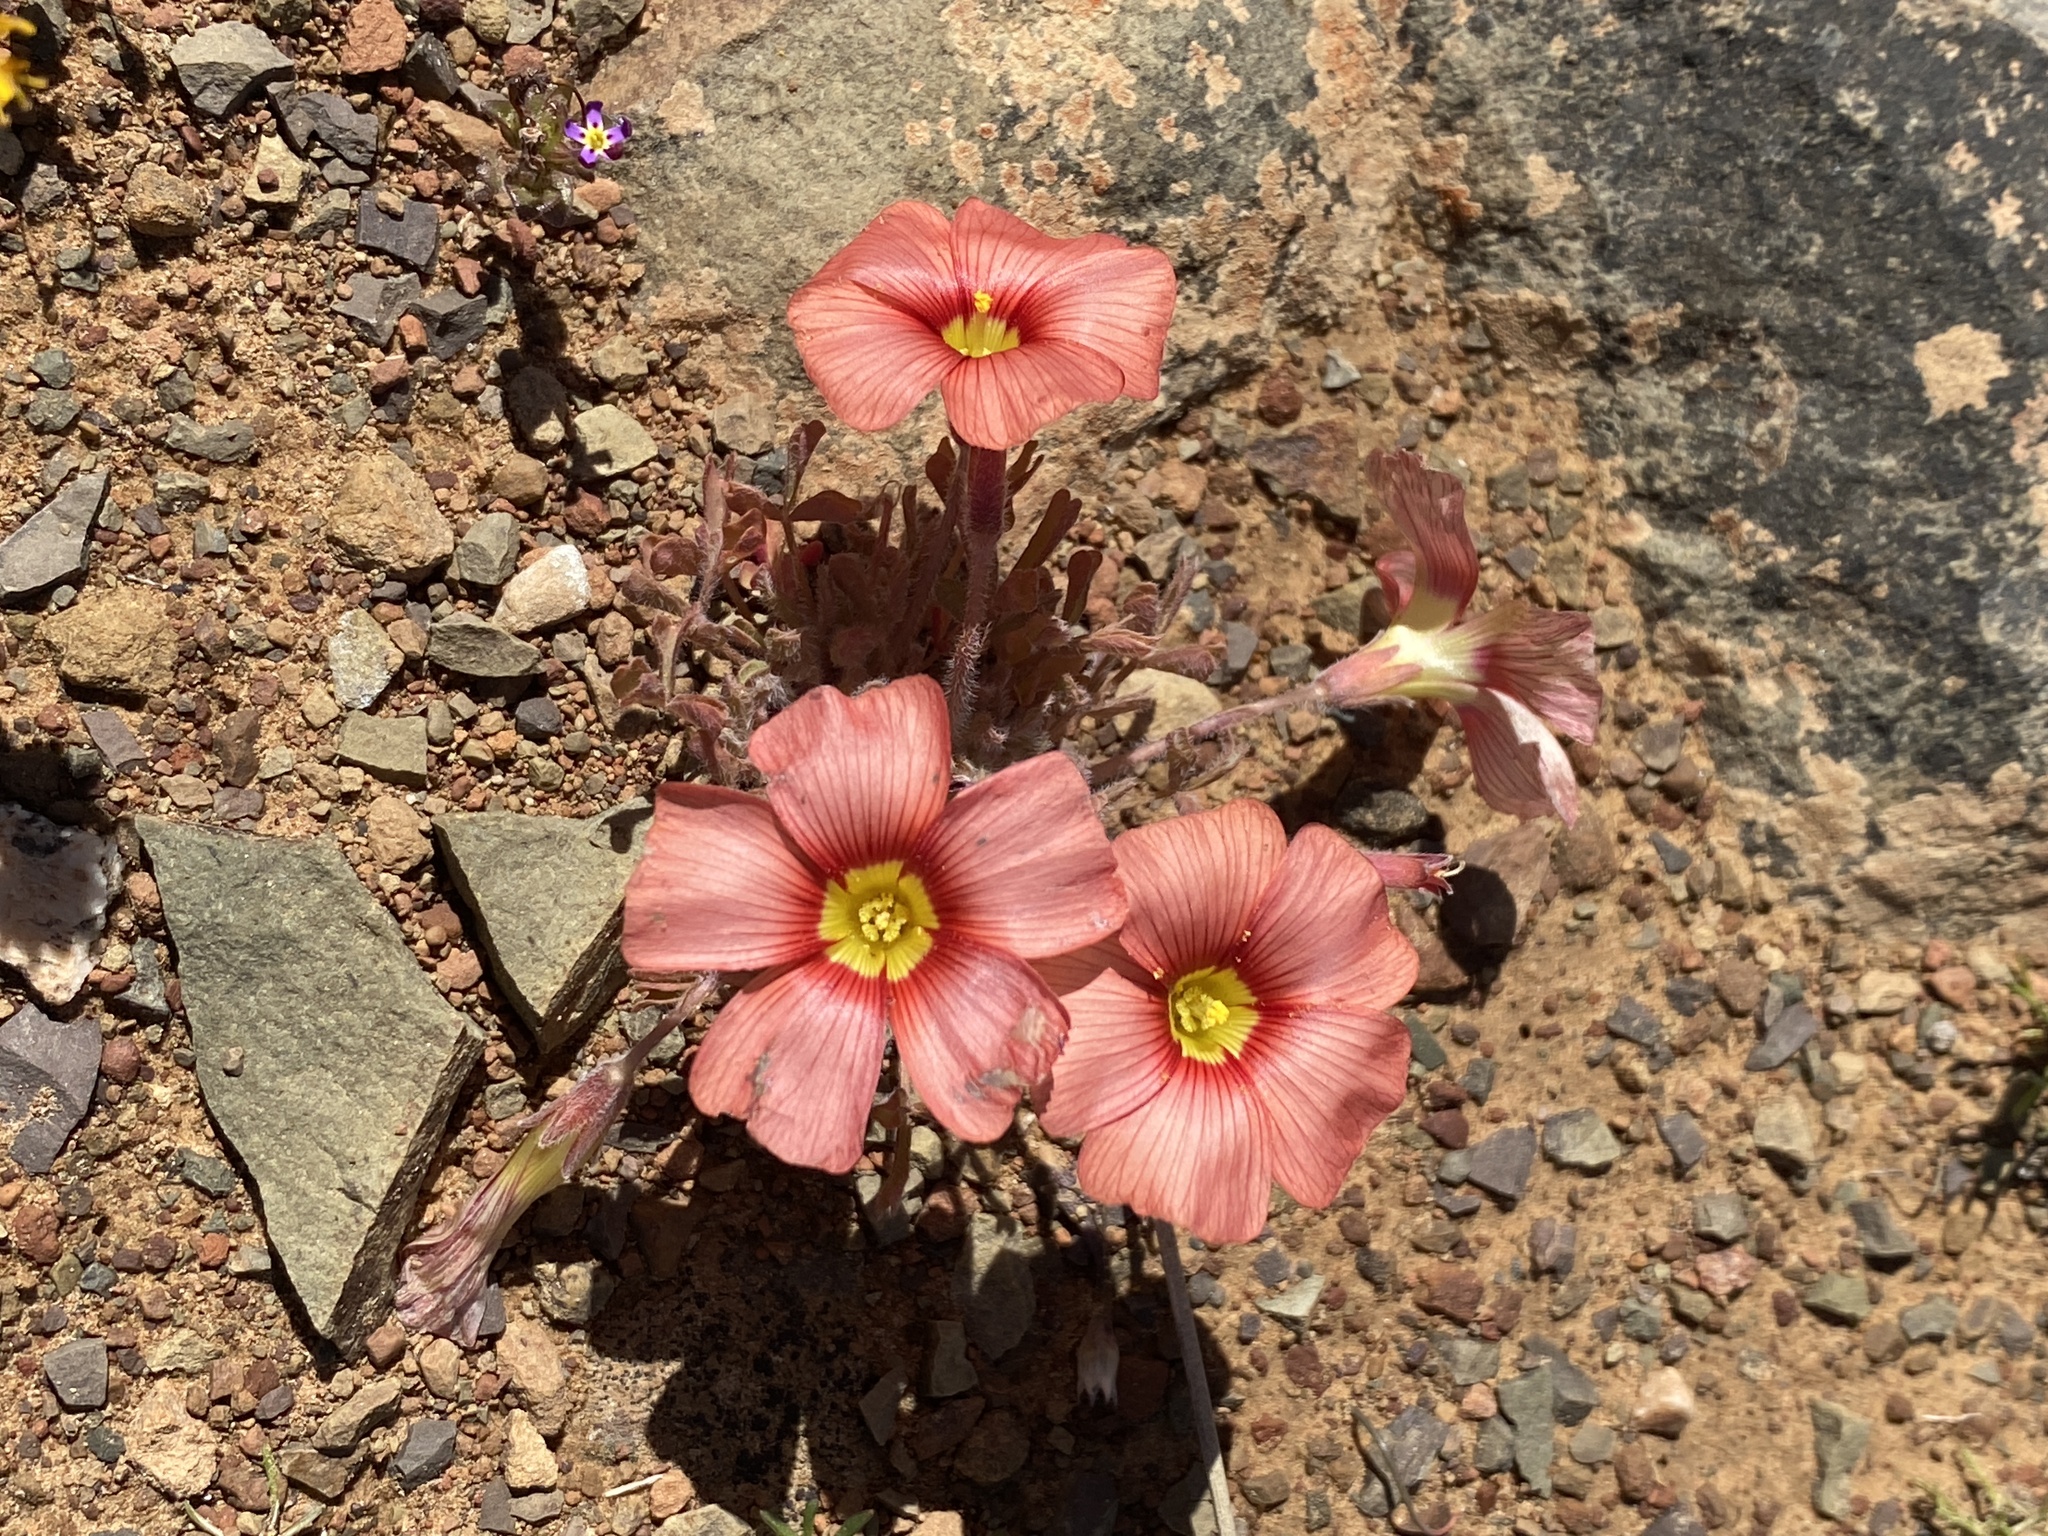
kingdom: Plantae
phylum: Tracheophyta
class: Magnoliopsida
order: Oxalidales
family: Oxalidaceae
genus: Oxalis
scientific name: Oxalis obtusa
